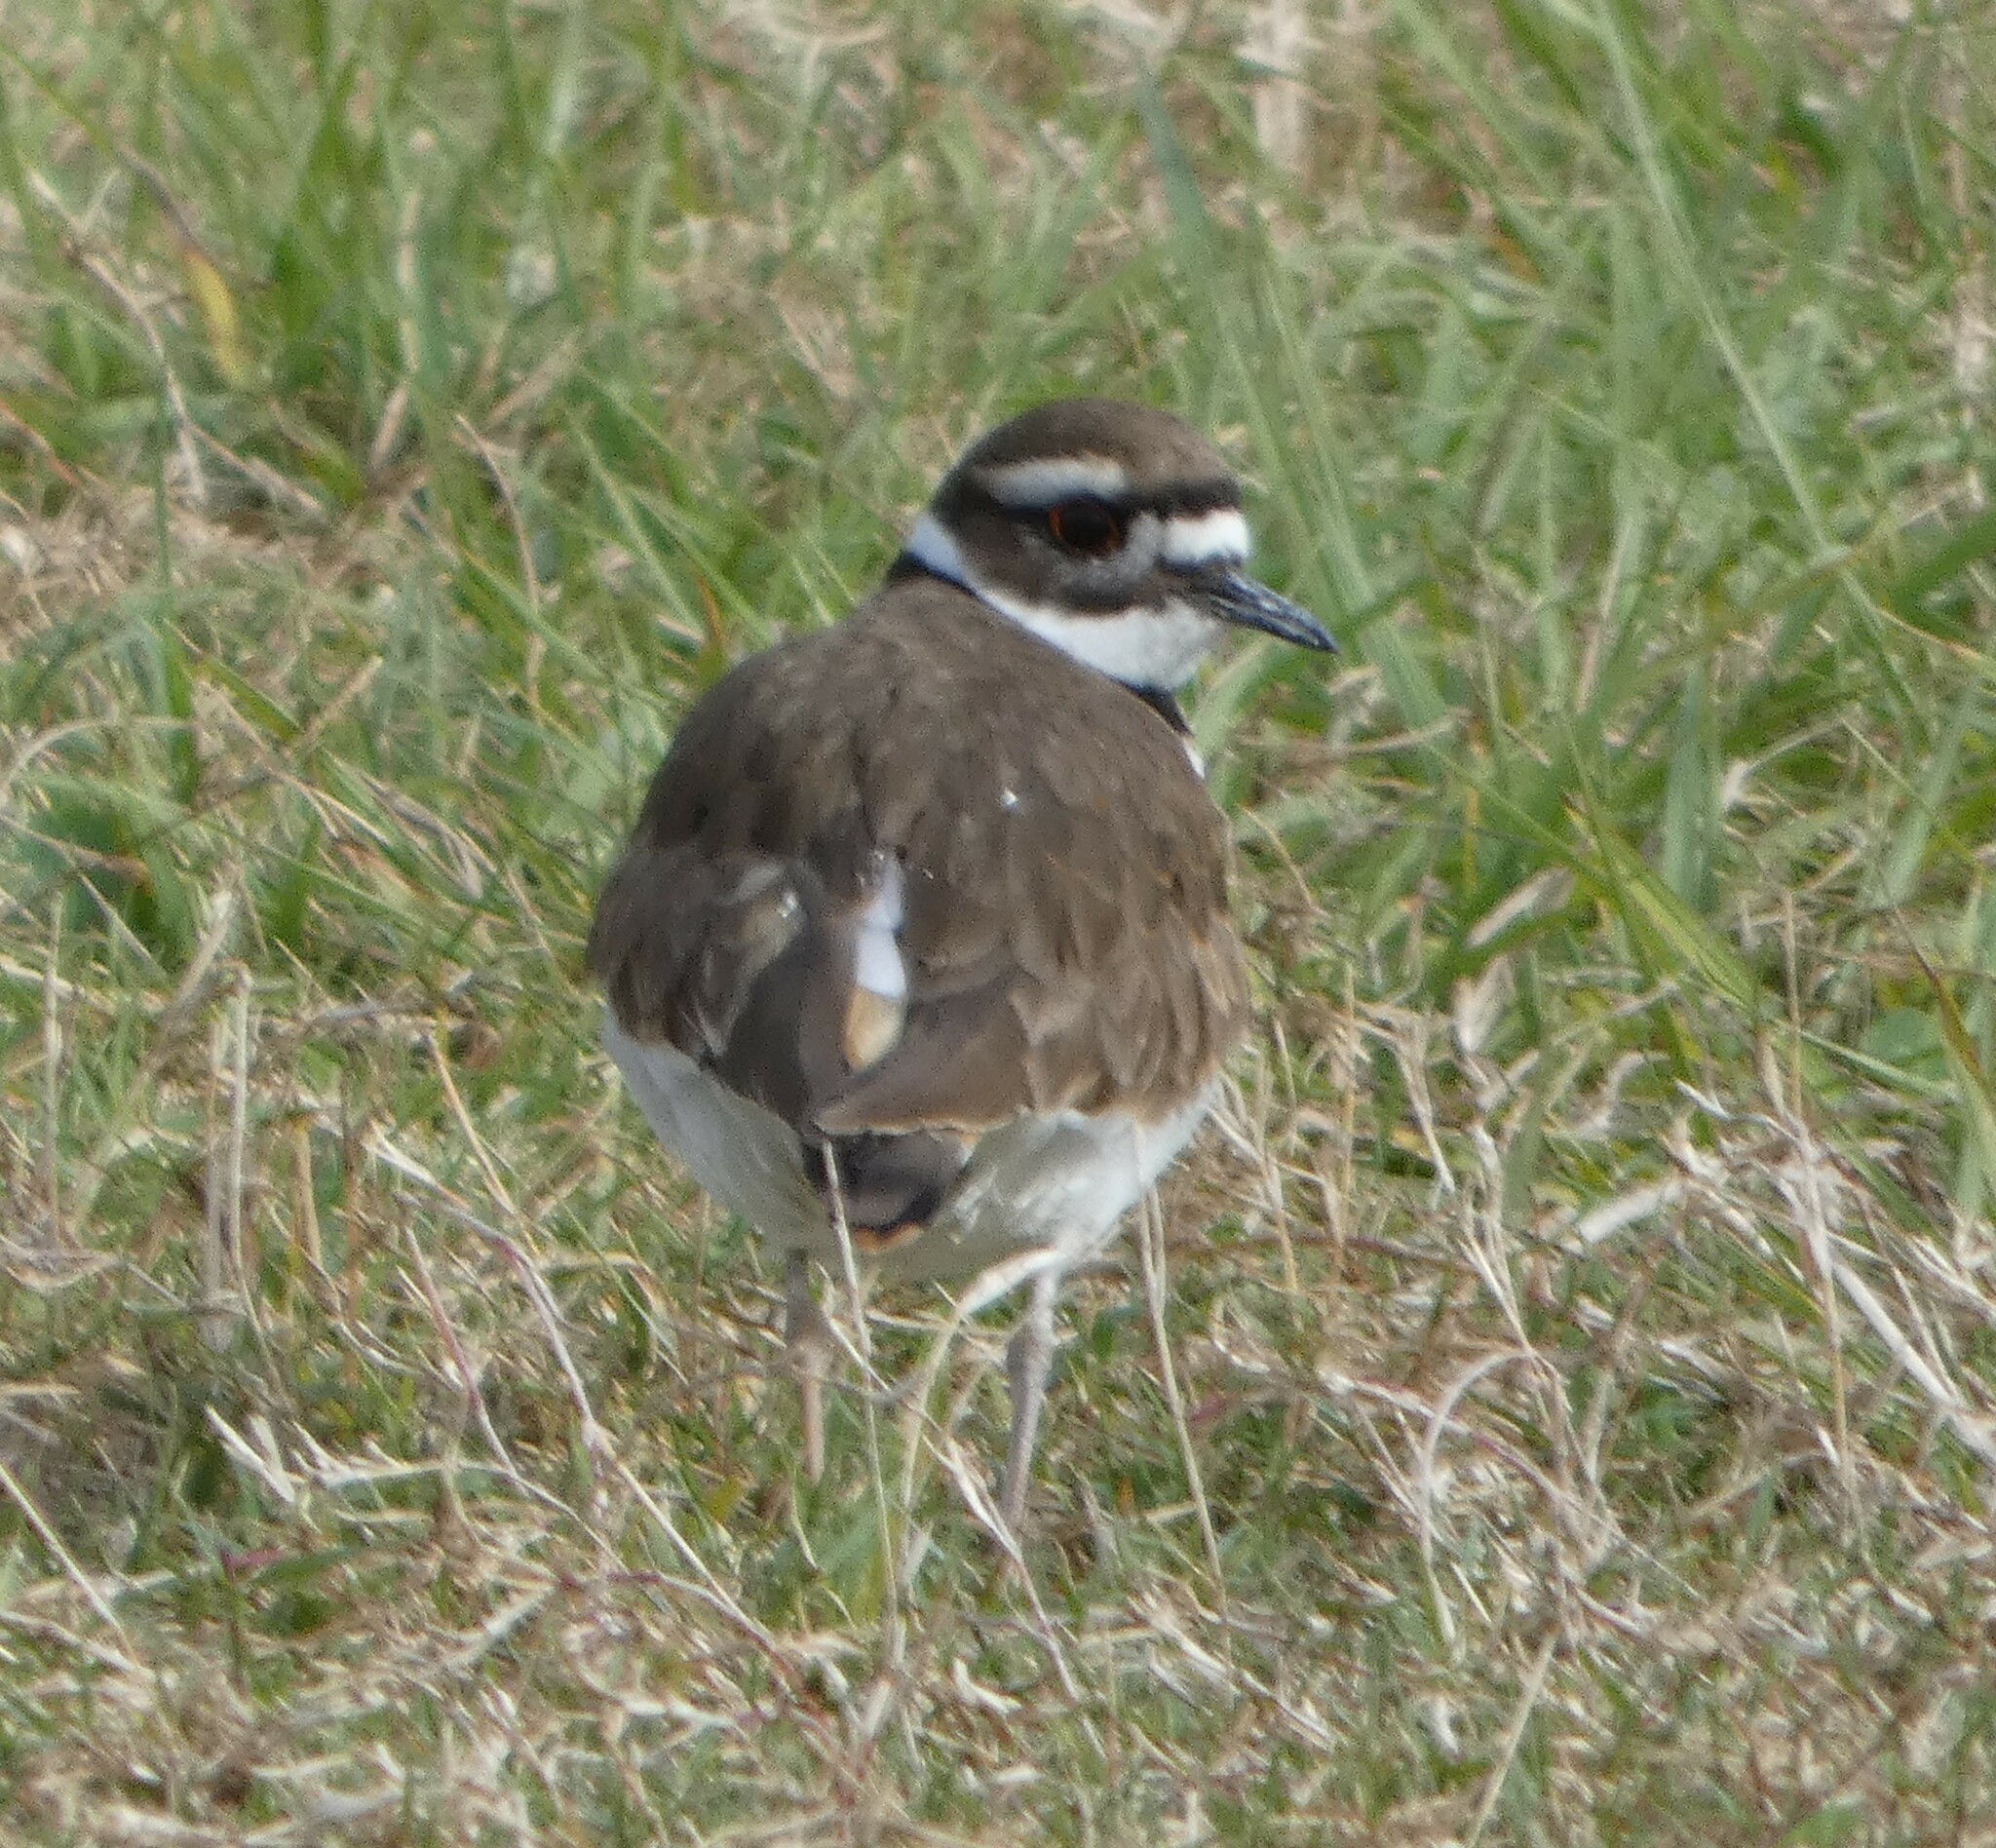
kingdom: Animalia
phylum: Chordata
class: Aves
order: Charadriiformes
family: Charadriidae
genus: Charadrius
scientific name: Charadrius vociferus
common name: Killdeer
